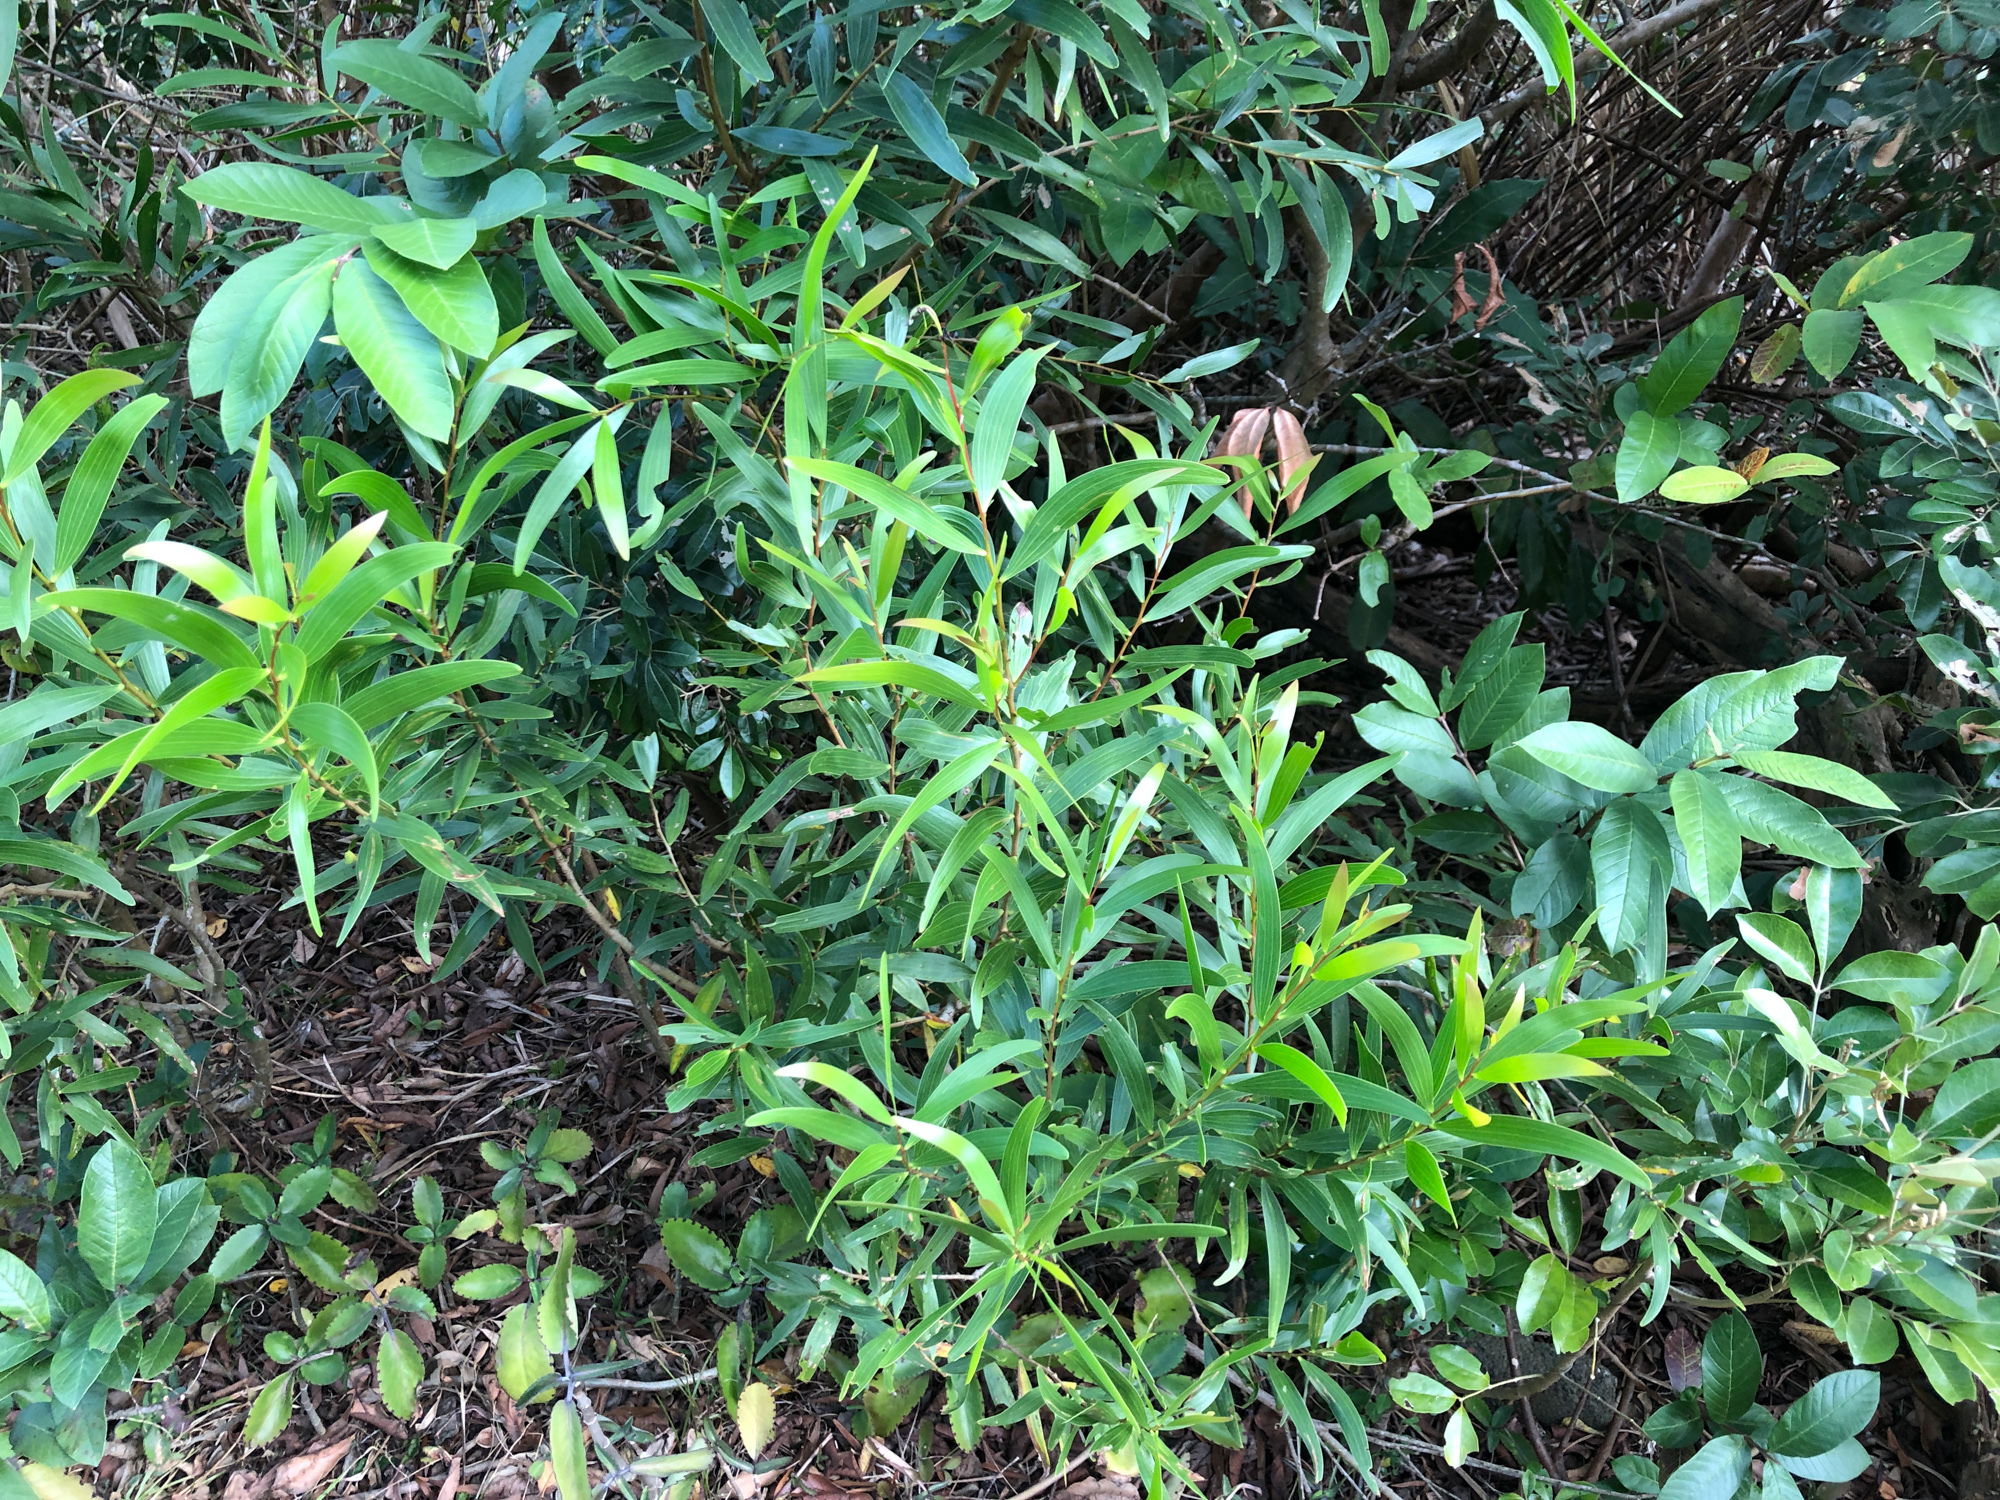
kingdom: Plantae
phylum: Tracheophyta
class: Magnoliopsida
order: Fabales
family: Fabaceae
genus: Acacia
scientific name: Acacia confusa
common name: Formosan koa
